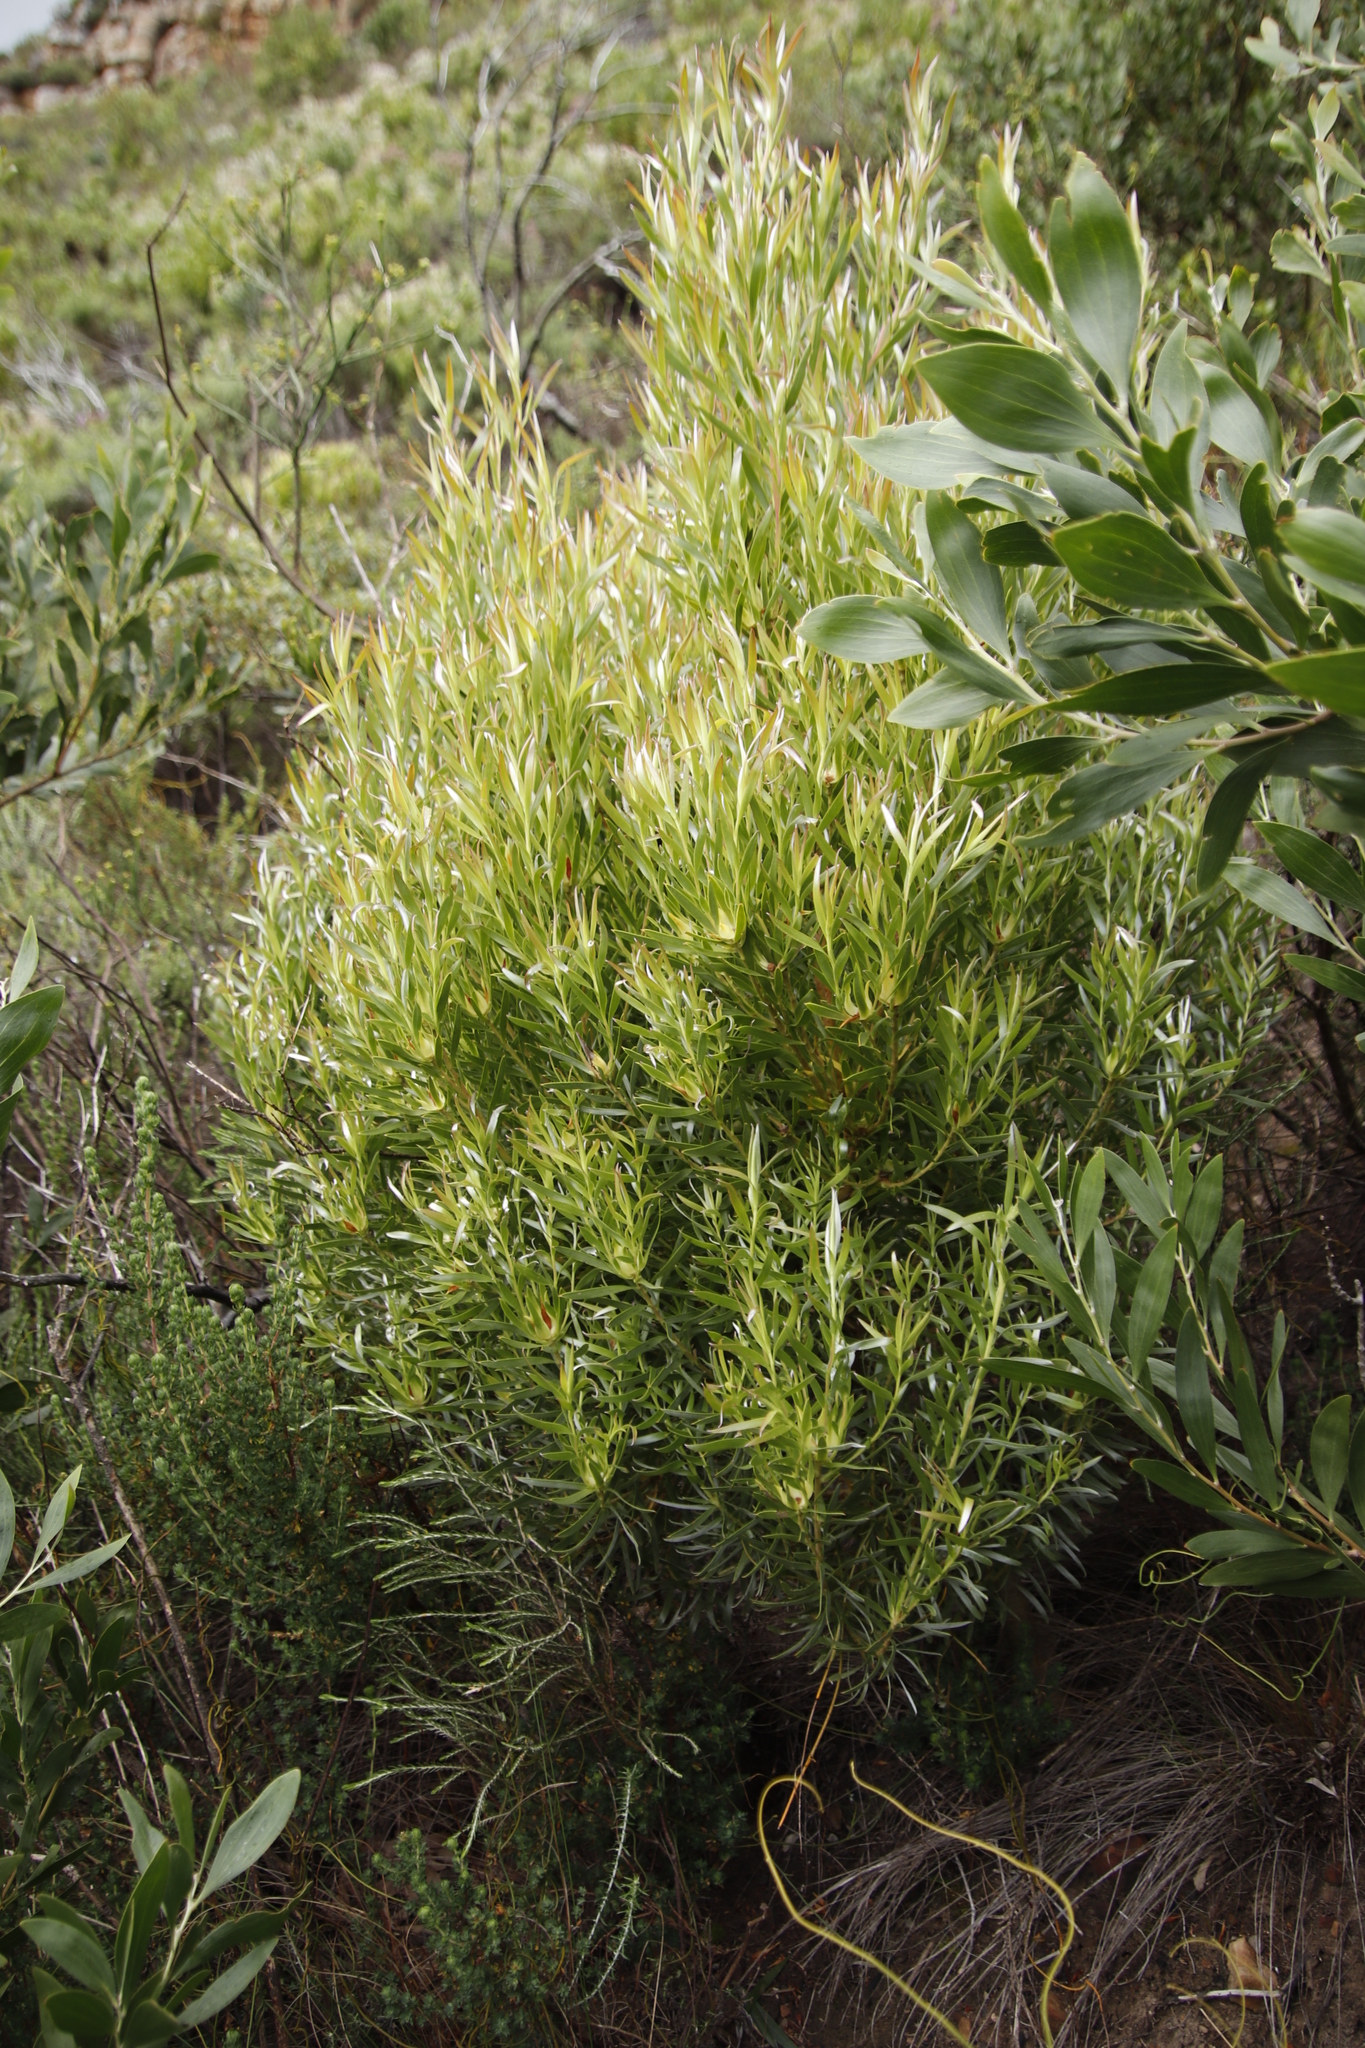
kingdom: Plantae
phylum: Tracheophyta
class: Magnoliopsida
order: Proteales
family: Proteaceae
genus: Leucadendron
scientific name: Leucadendron xanthoconus
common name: Sickle-leaf conebush
